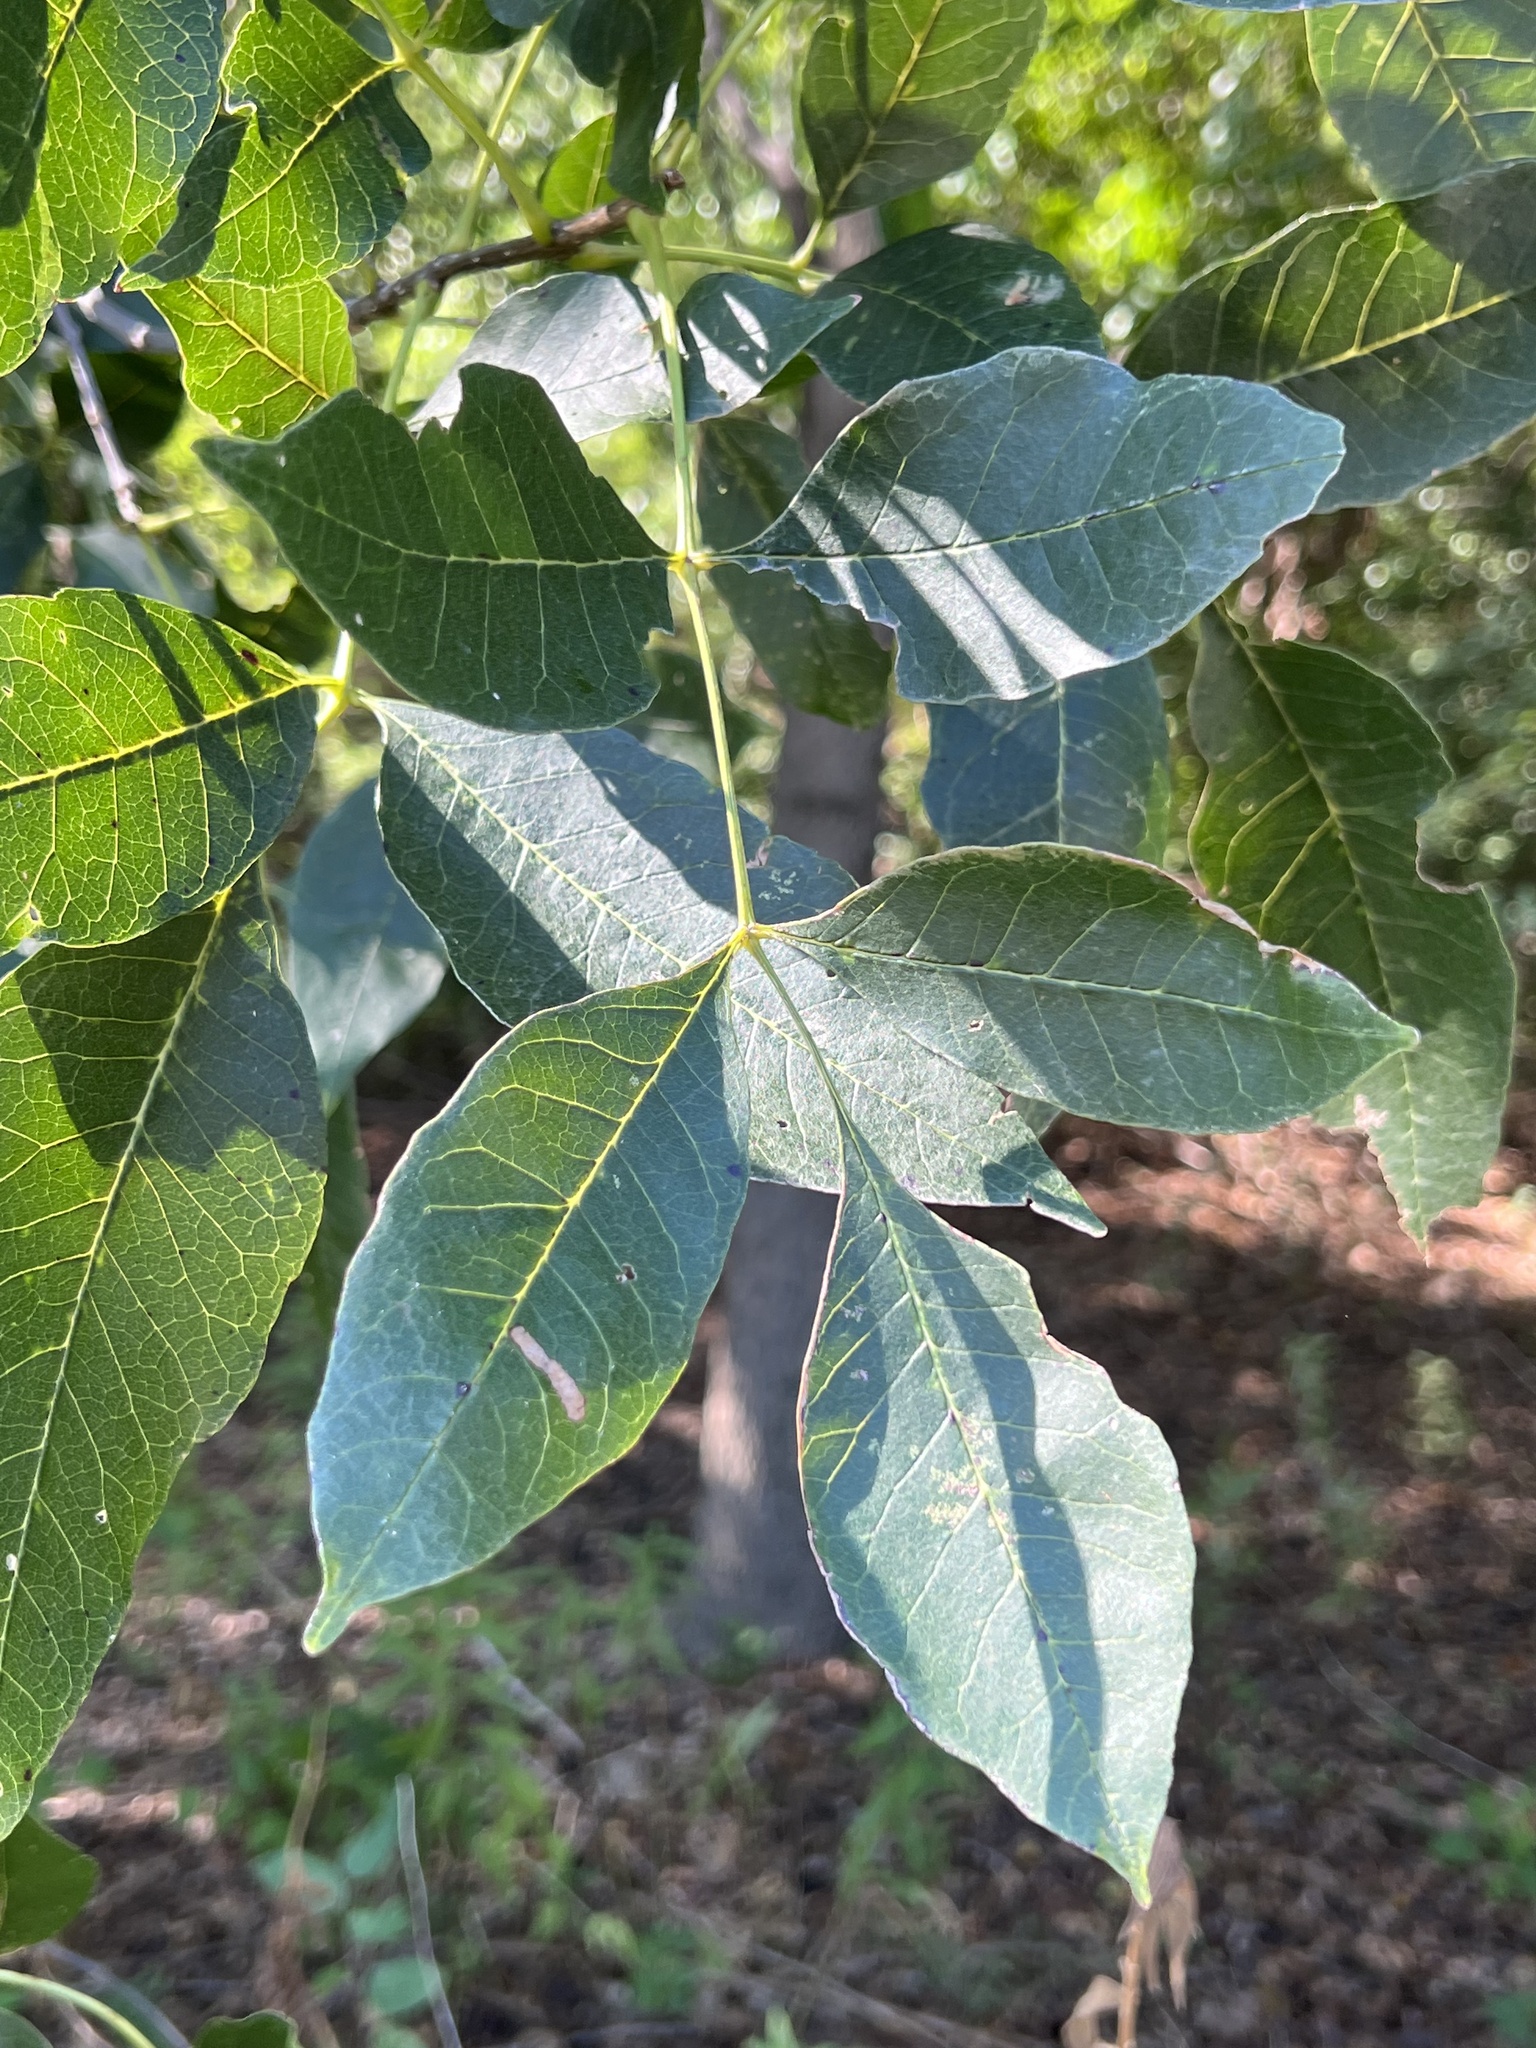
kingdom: Plantae
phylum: Tracheophyta
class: Magnoliopsida
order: Lamiales
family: Oleaceae
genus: Fraxinus
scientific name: Fraxinus pennsylvanica
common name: Green ash
